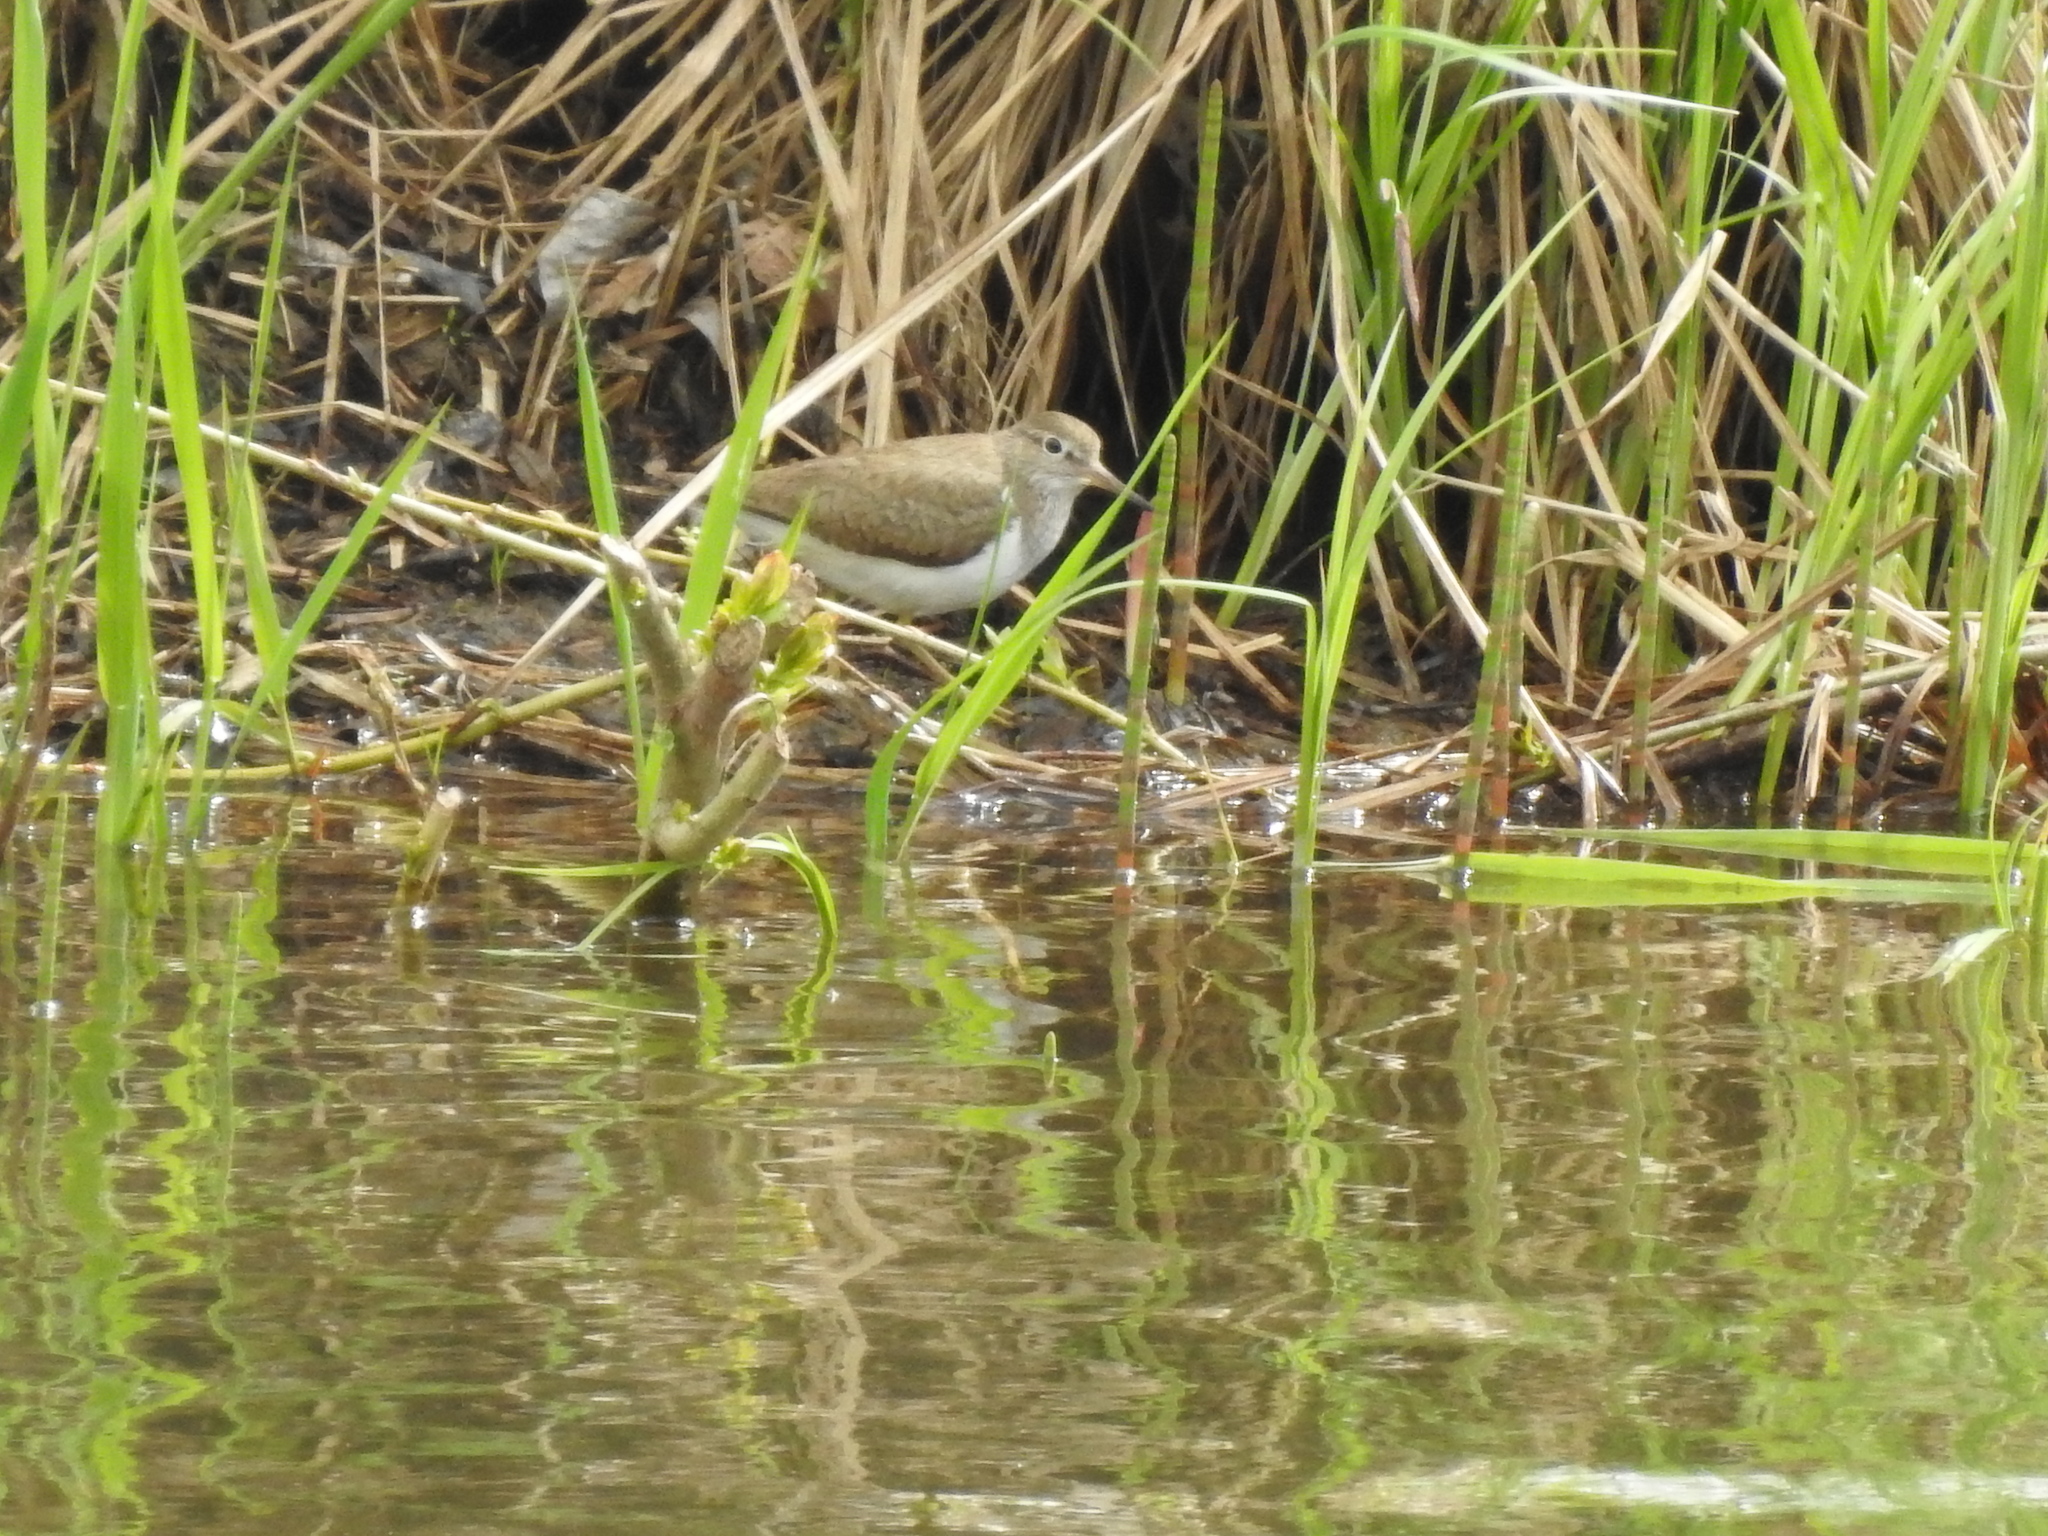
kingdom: Animalia
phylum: Chordata
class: Aves
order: Charadriiformes
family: Scolopacidae
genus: Actitis
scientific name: Actitis hypoleucos
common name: Common sandpiper
